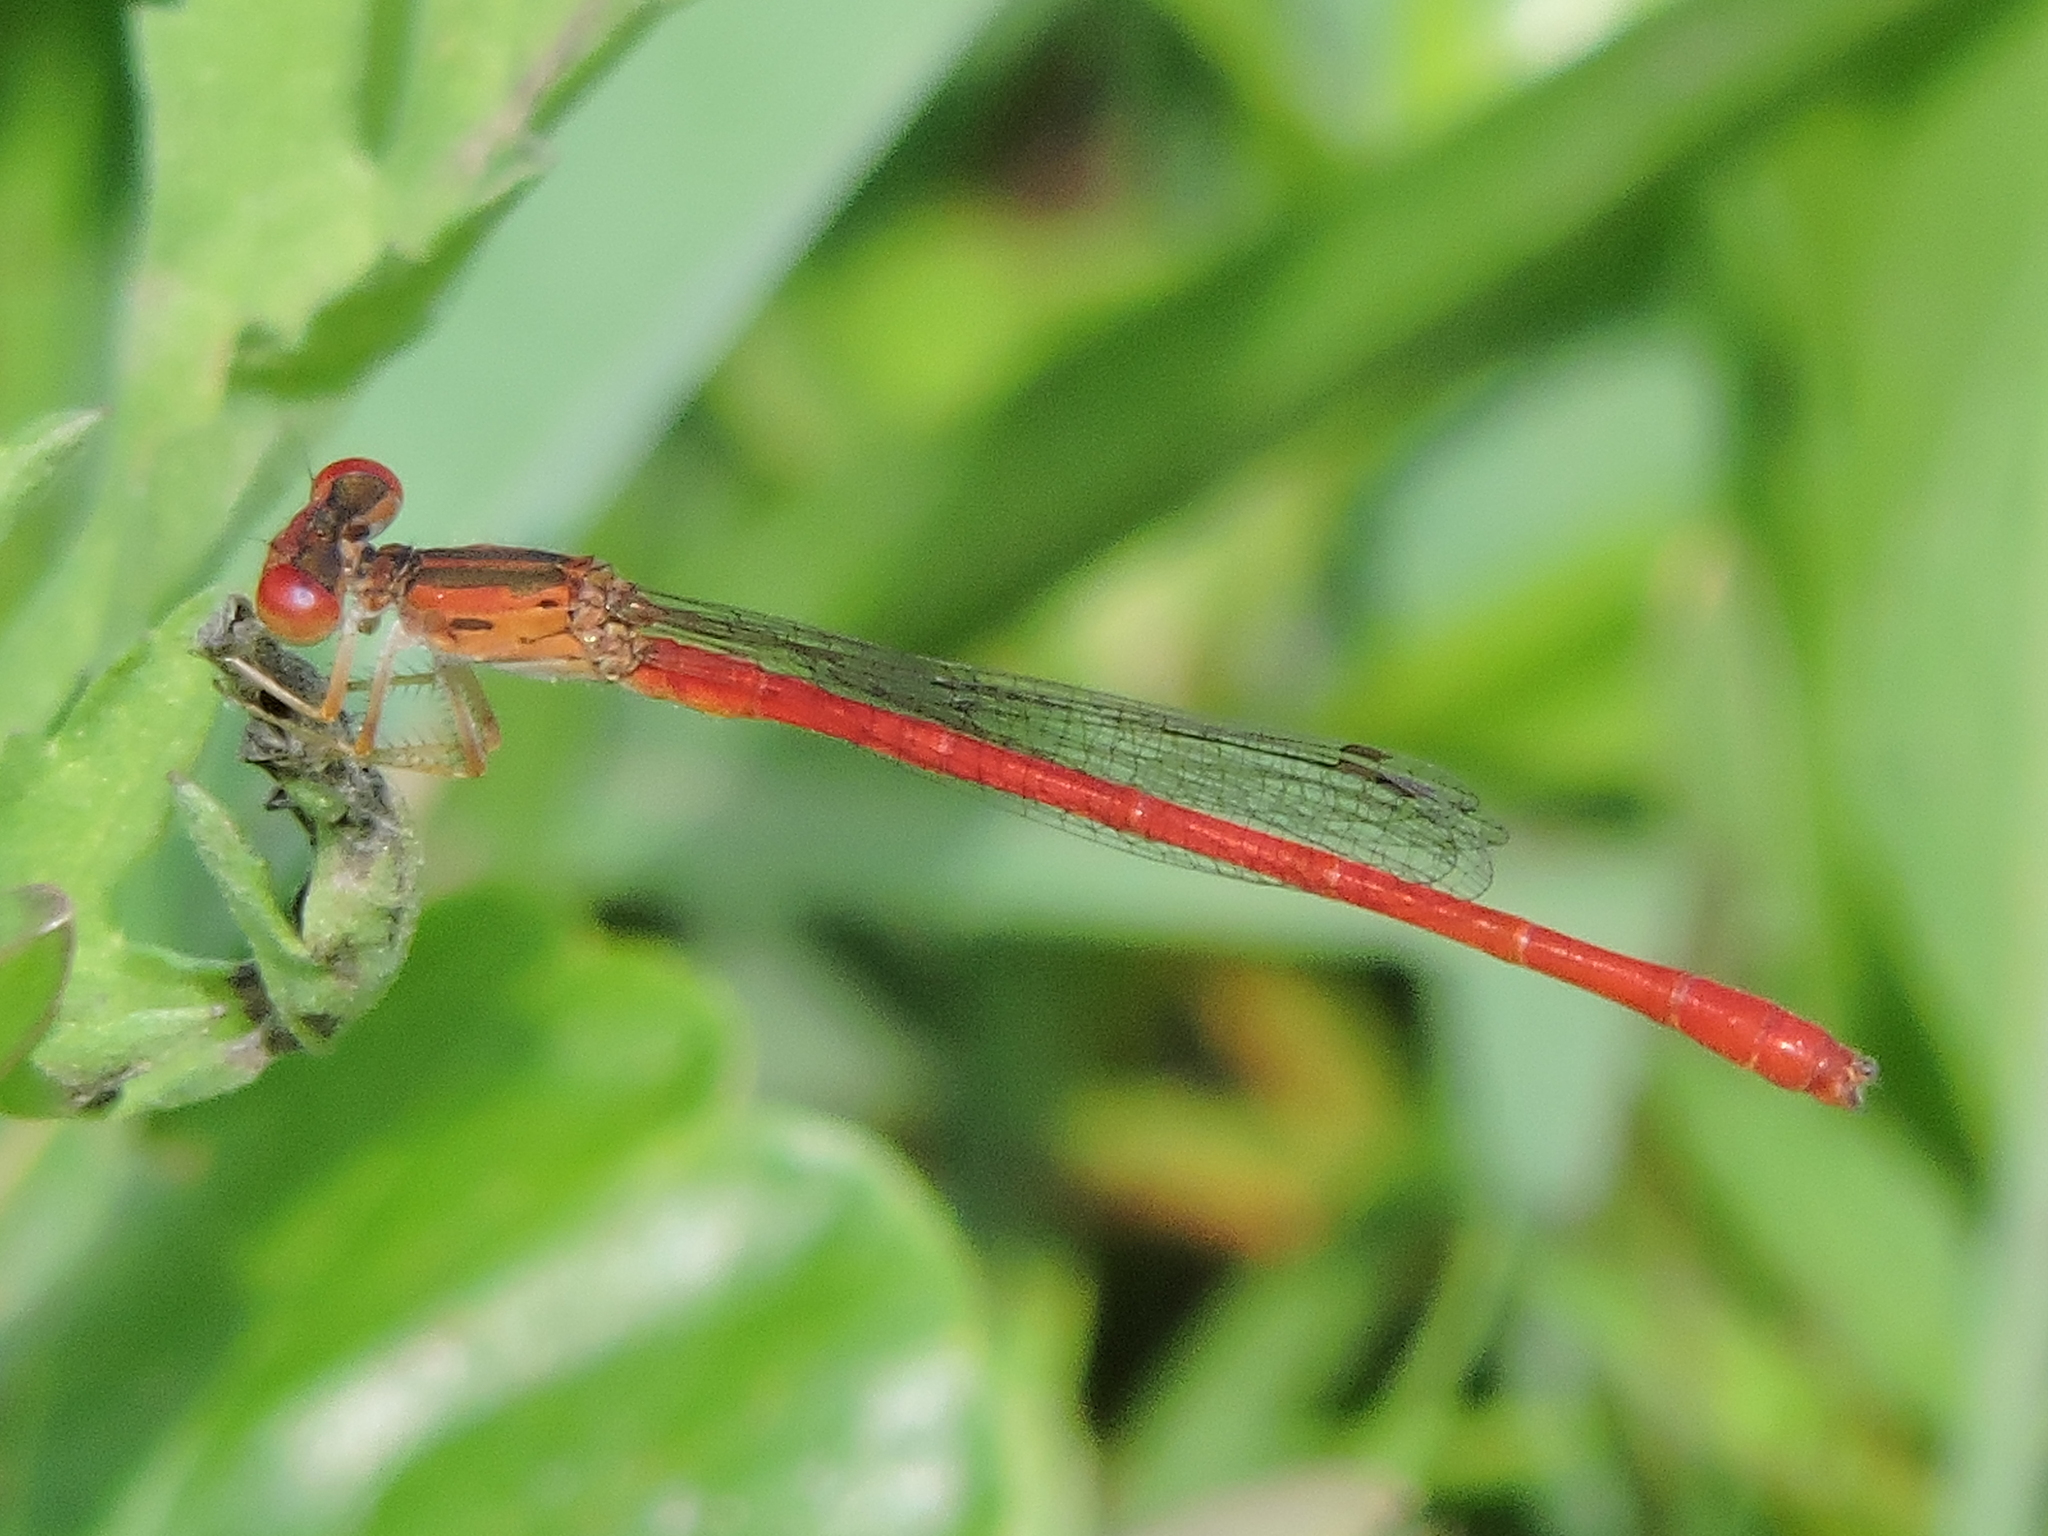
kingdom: Animalia
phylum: Arthropoda
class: Insecta
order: Odonata
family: Coenagrionidae
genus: Telebasis
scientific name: Telebasis salva
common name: Desert firetail
